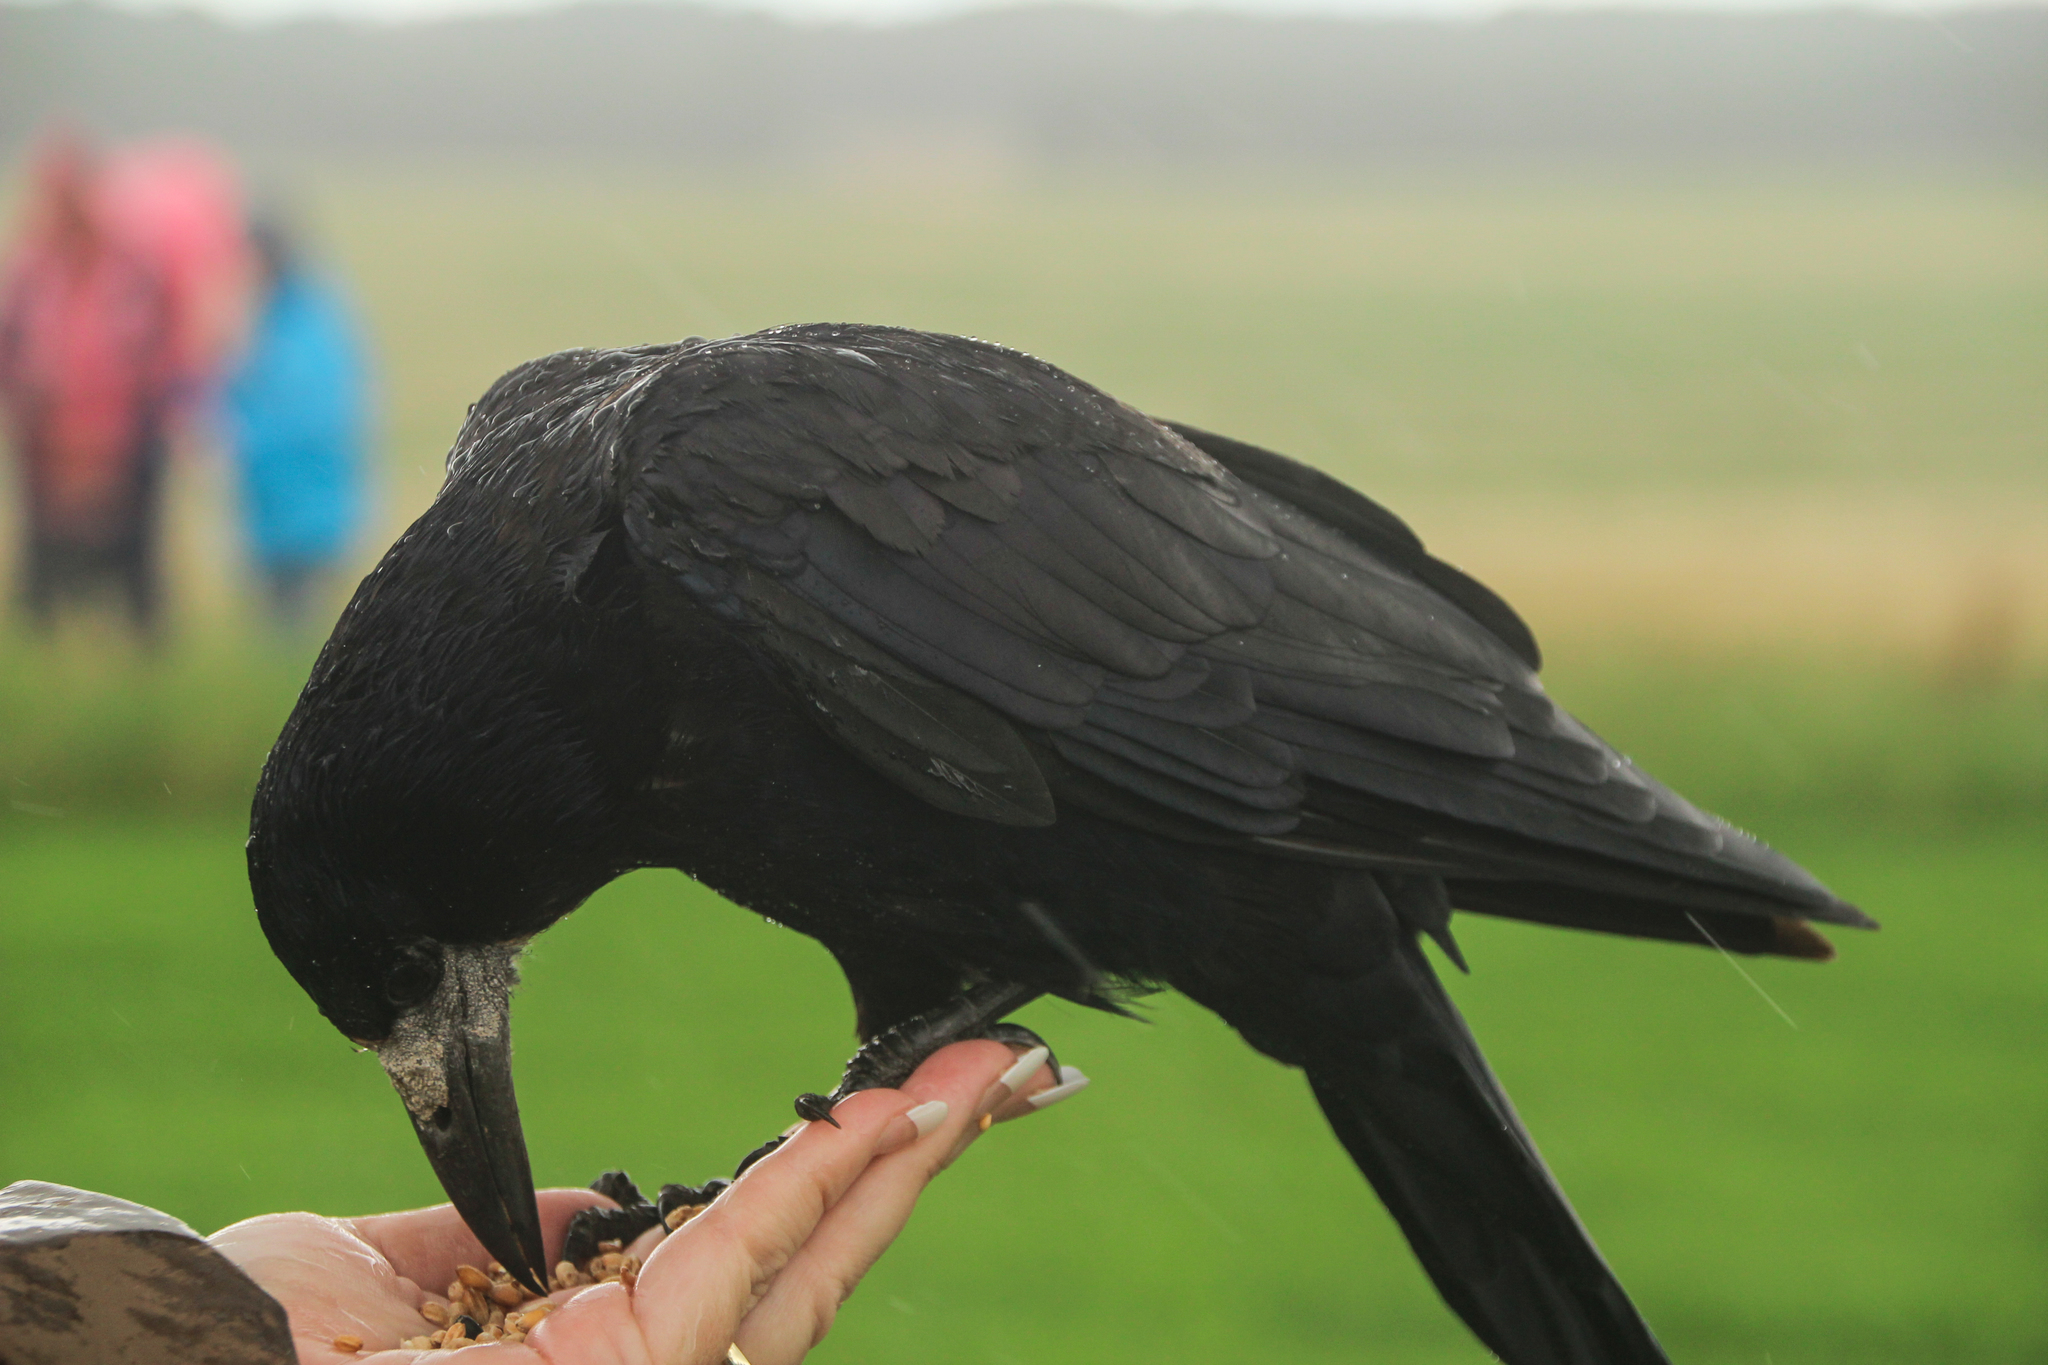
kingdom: Animalia
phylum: Chordata
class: Aves
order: Passeriformes
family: Corvidae
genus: Corvus
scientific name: Corvus frugilegus
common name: Rook
